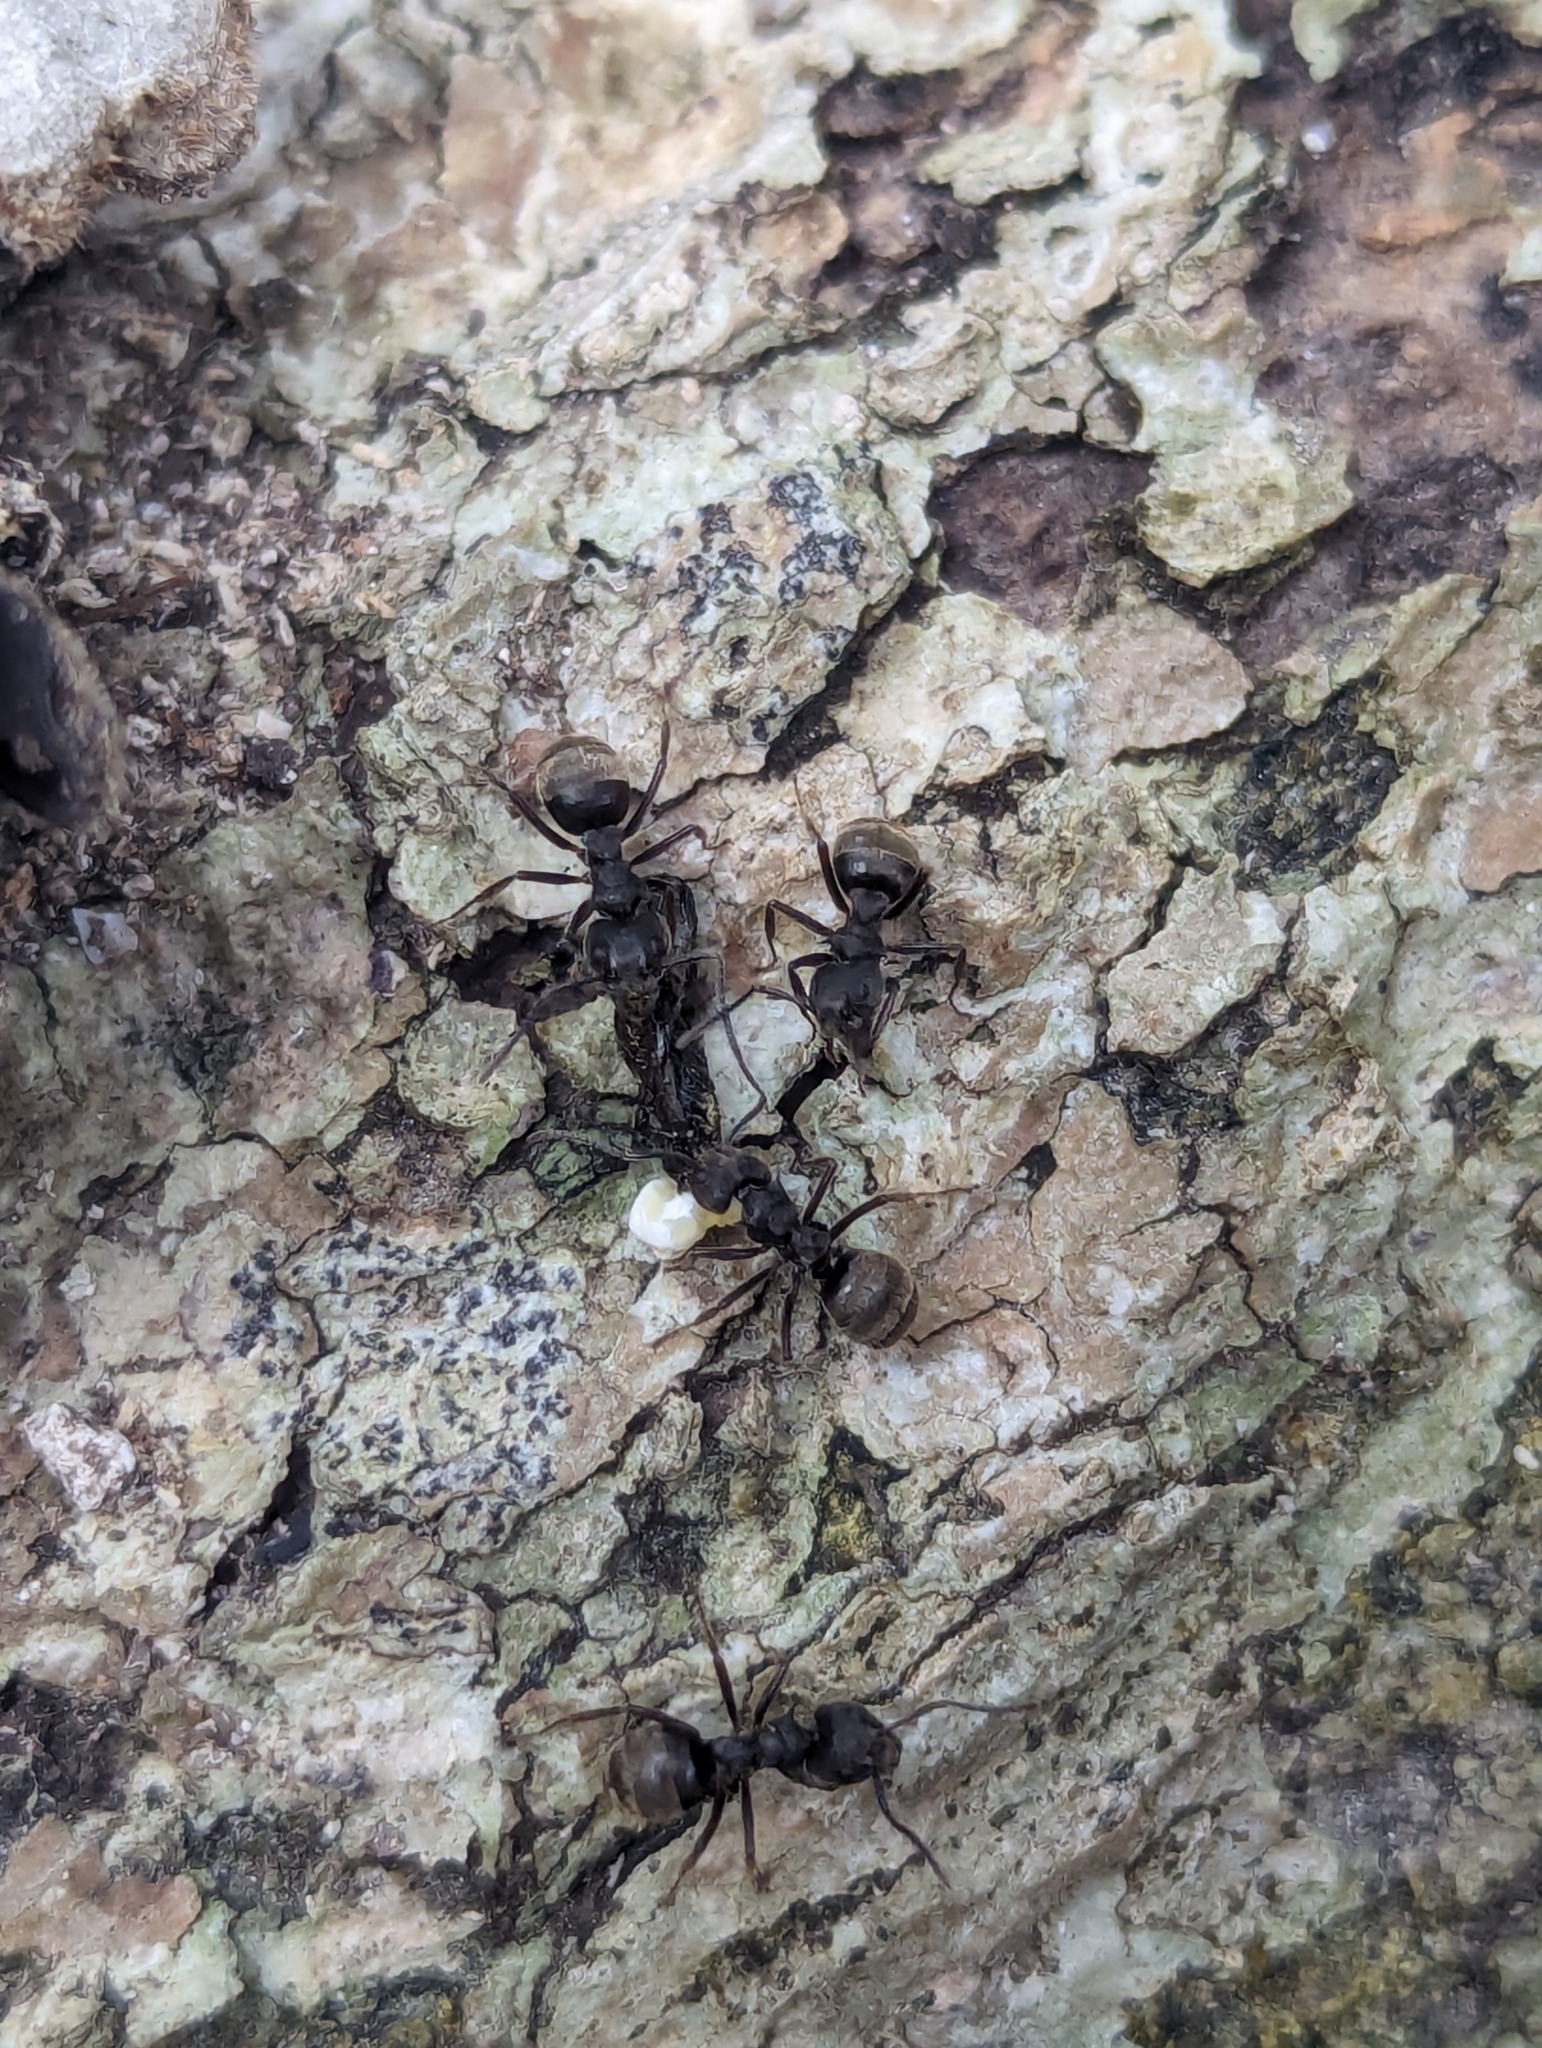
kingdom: Animalia
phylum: Arthropoda
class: Insecta
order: Hymenoptera
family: Formicidae
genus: Dolichoderus
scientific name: Dolichoderus bispinosus
